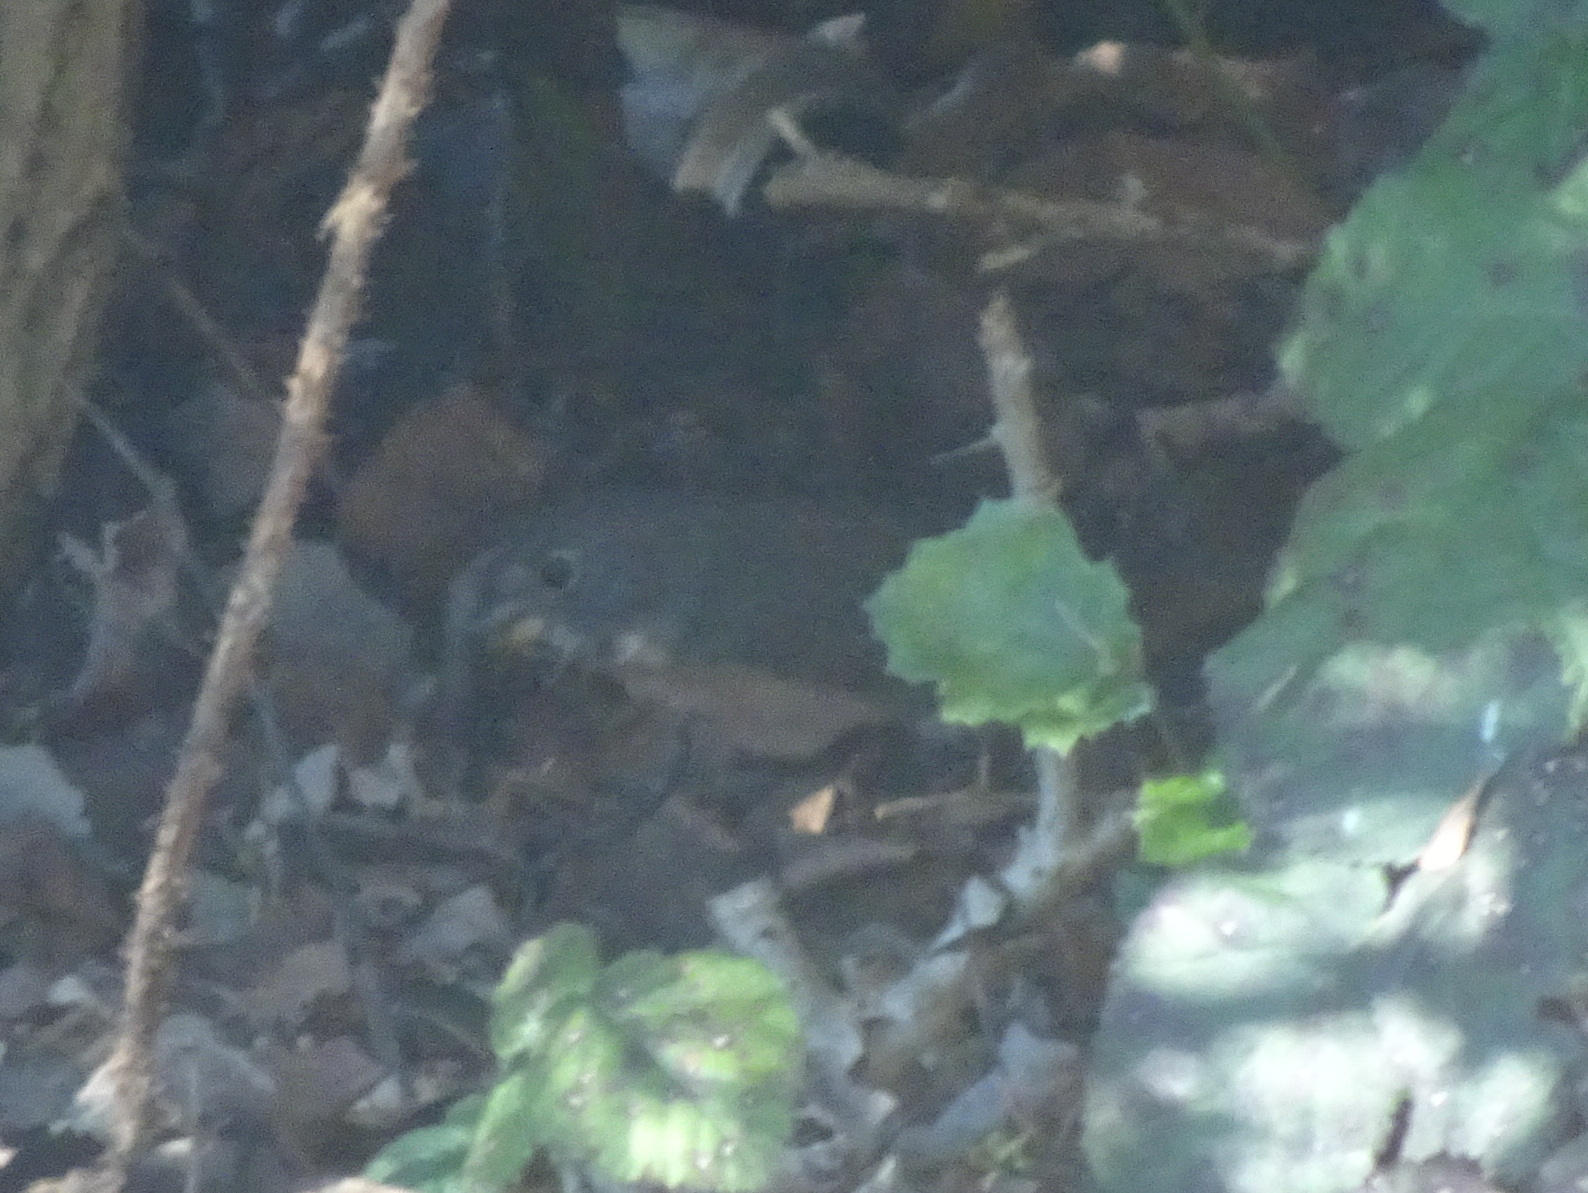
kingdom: Animalia
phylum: Chordata
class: Aves
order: Passeriformes
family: Passerellidae
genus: Passerella
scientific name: Passerella iliaca
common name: Fox sparrow
